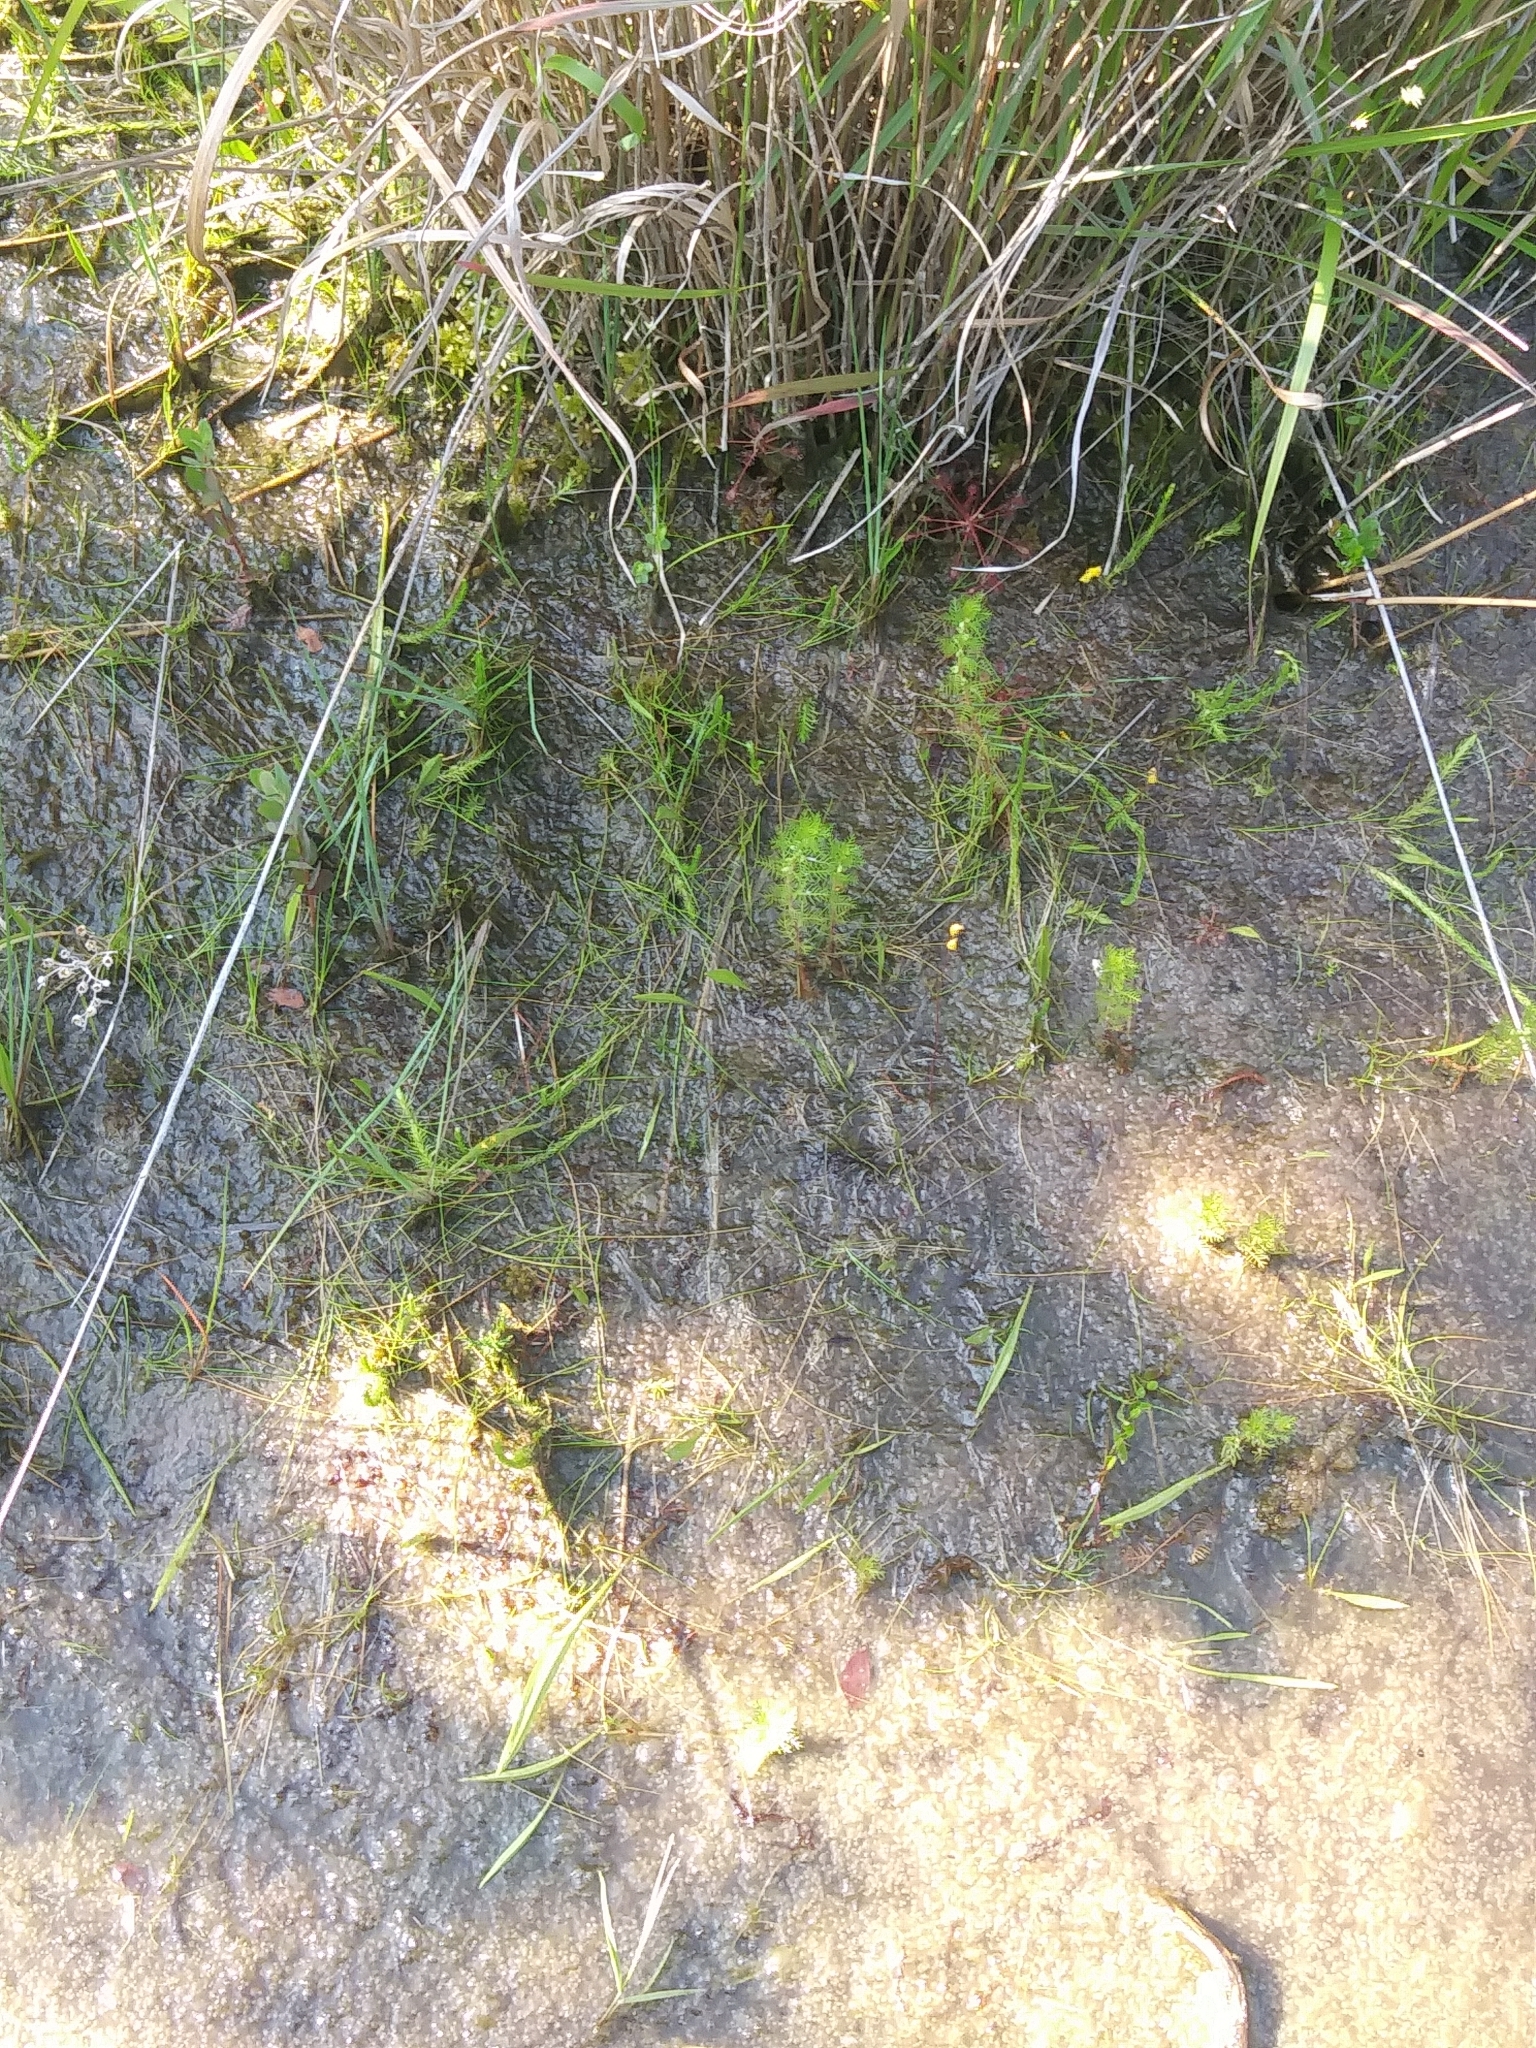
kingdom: Plantae
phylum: Tracheophyta
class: Magnoliopsida
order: Saxifragales
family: Haloragaceae
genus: Proserpinaca
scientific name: Proserpinaca pectinata
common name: Comb-leaved mermaidweed
